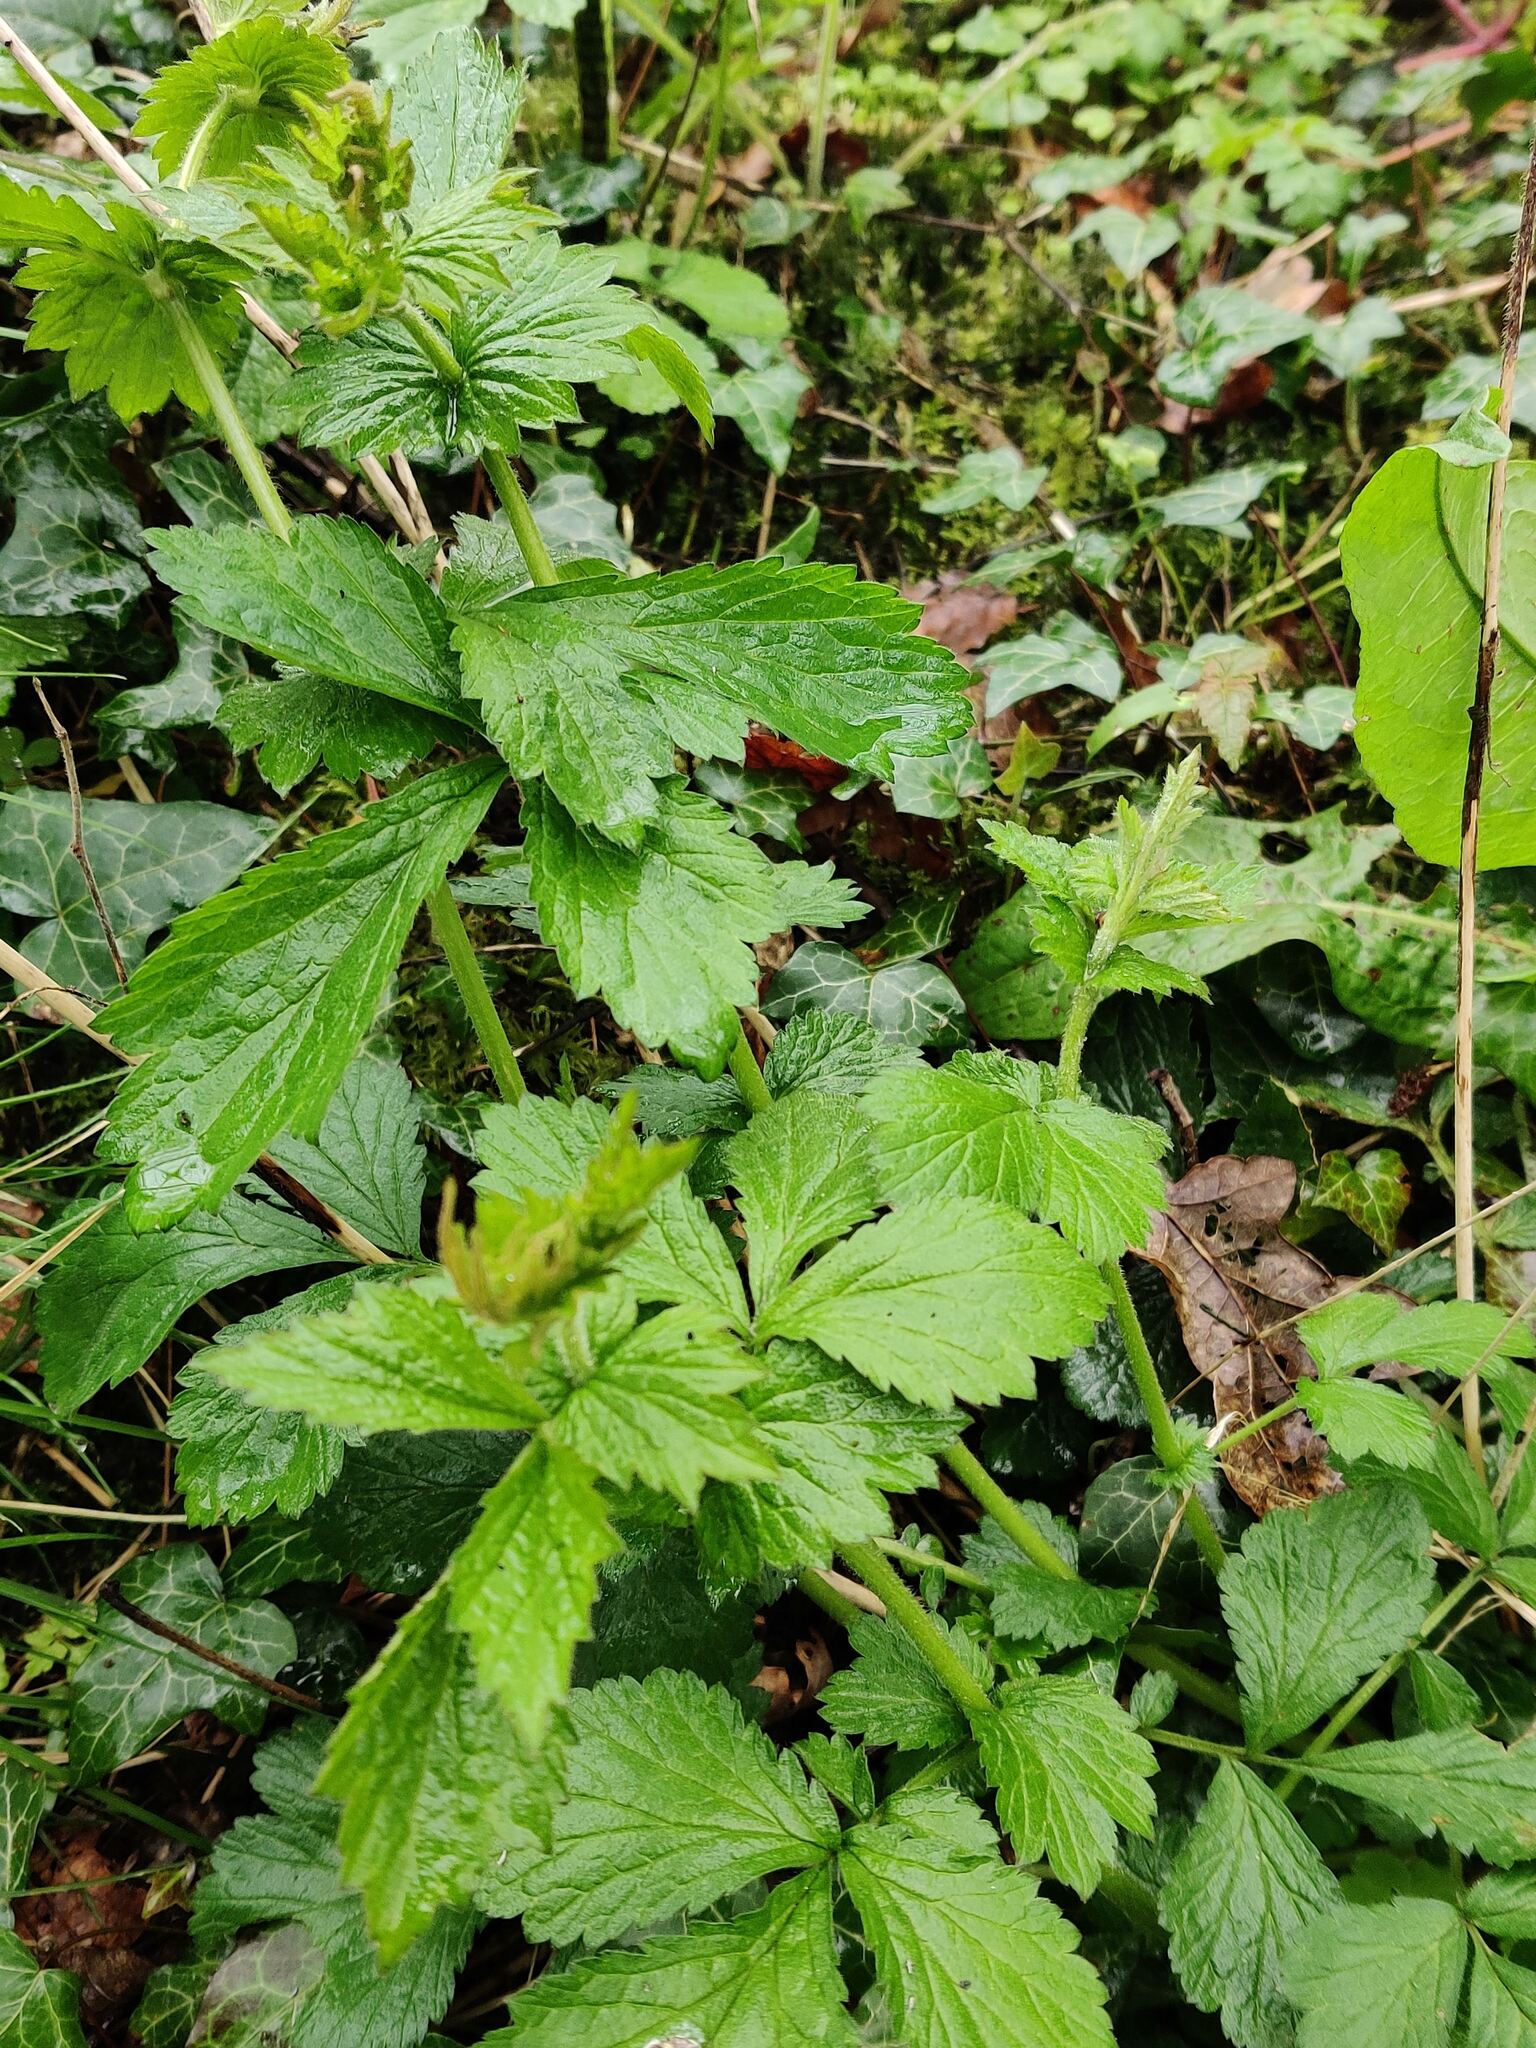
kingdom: Plantae
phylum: Tracheophyta
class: Magnoliopsida
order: Rosales
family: Rosaceae
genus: Geum
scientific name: Geum urbanum
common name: Wood avens
